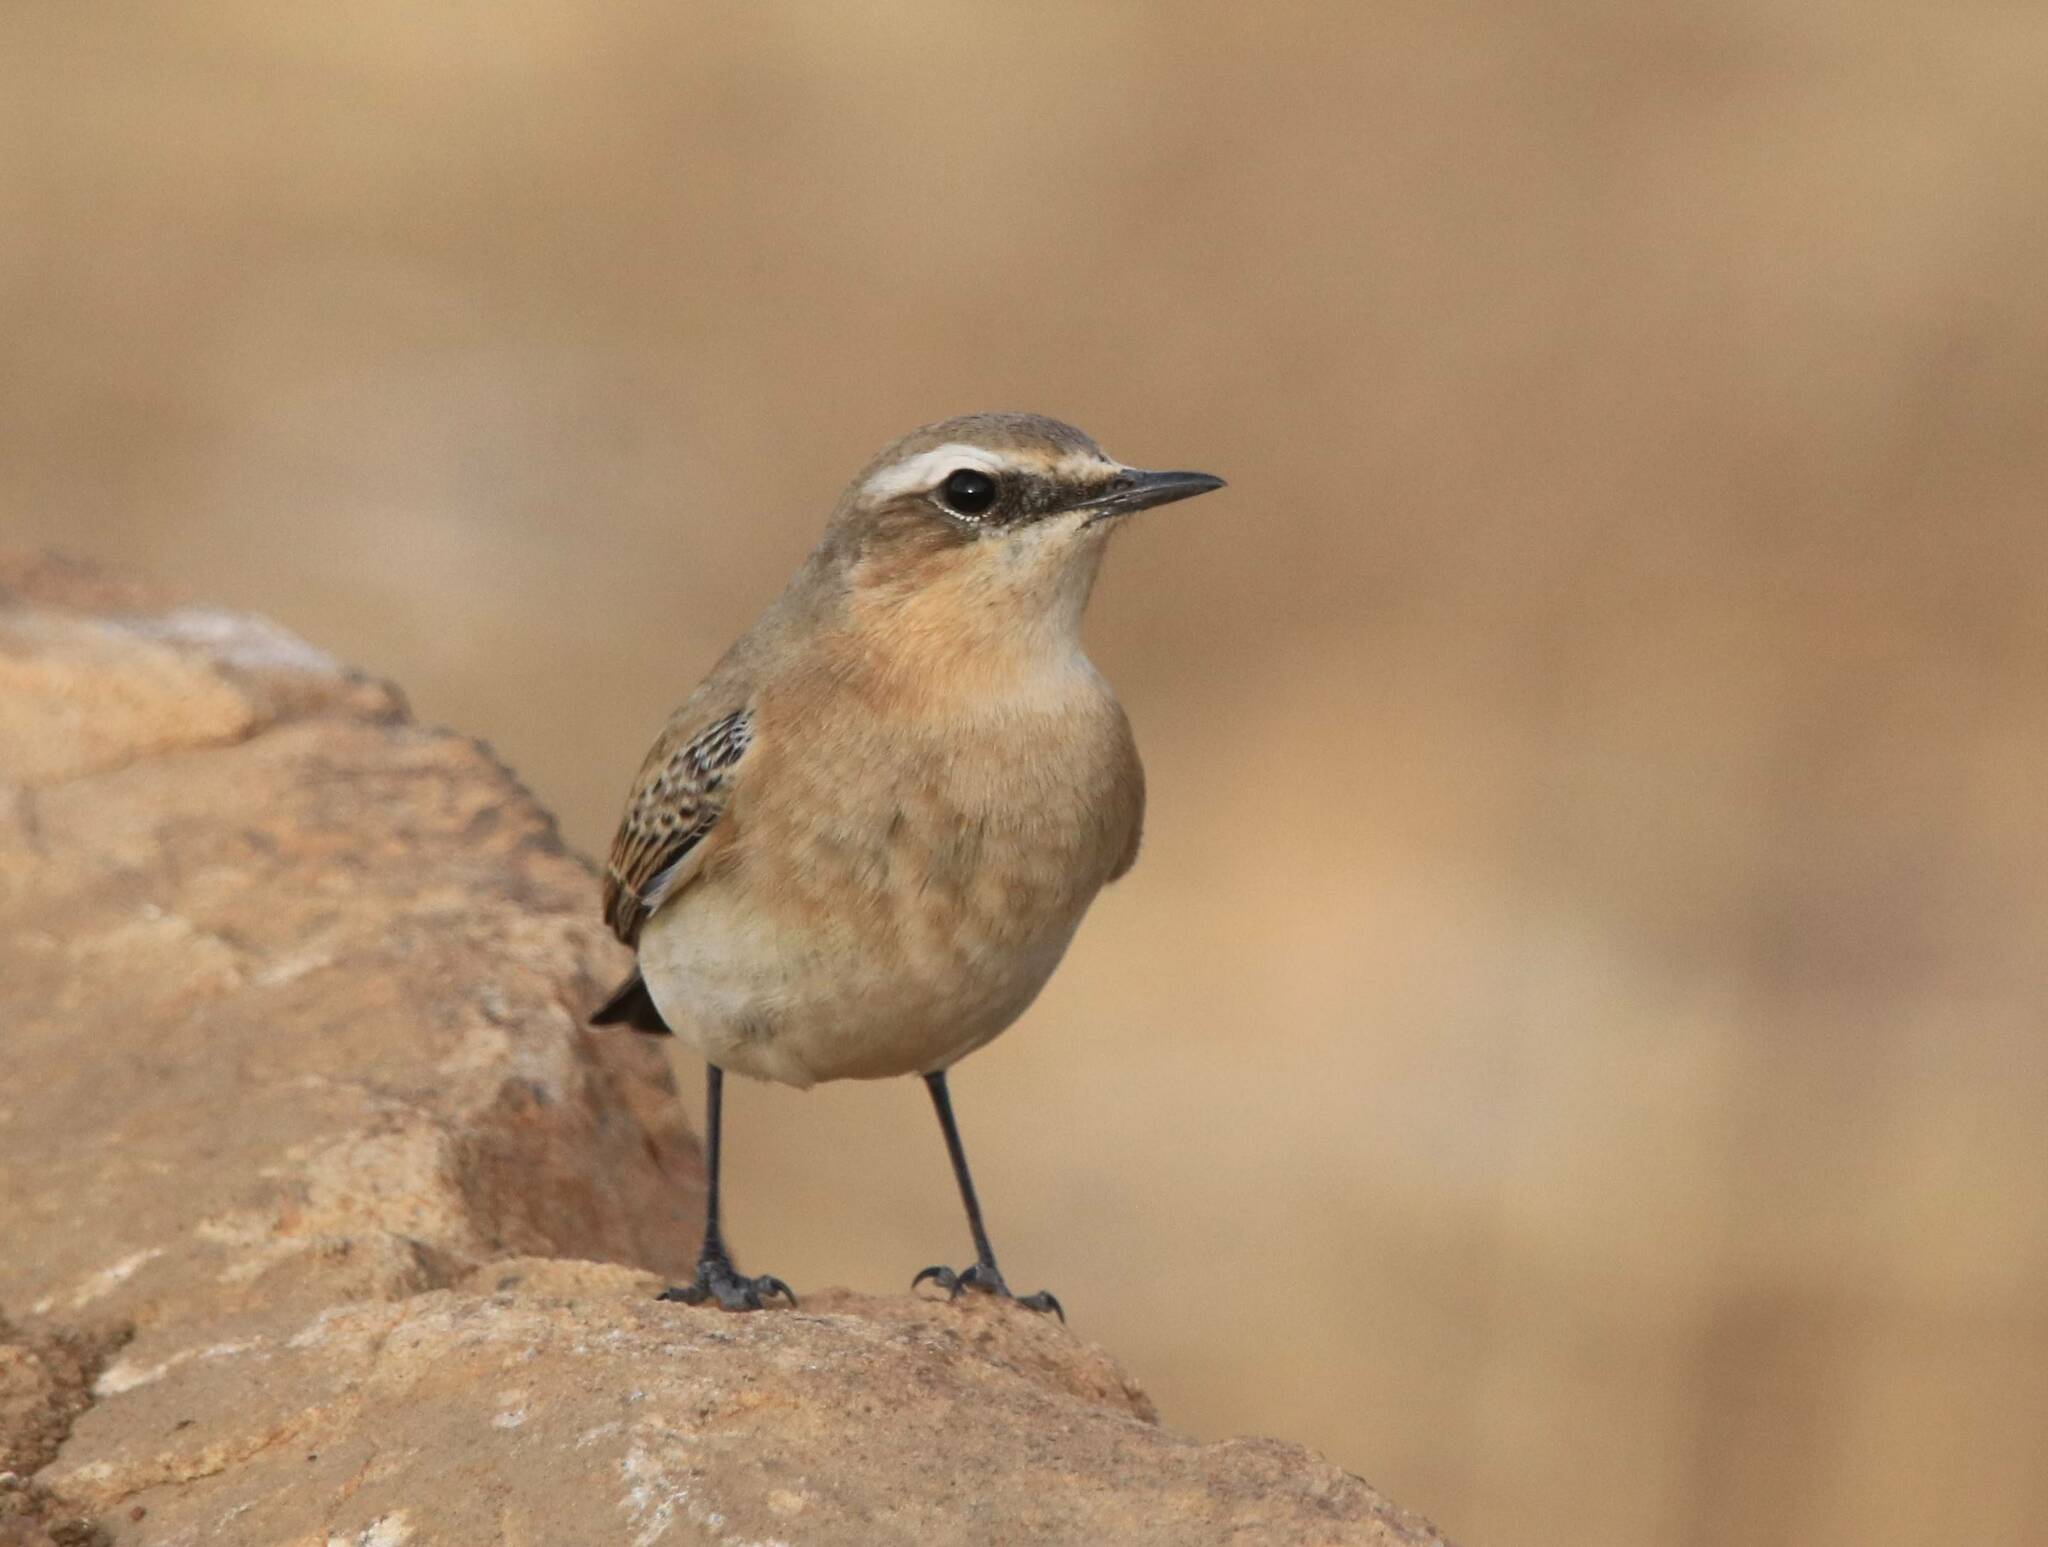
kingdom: Animalia
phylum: Chordata
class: Aves
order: Passeriformes
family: Muscicapidae
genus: Oenanthe
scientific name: Oenanthe oenanthe
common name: Northern wheatear
